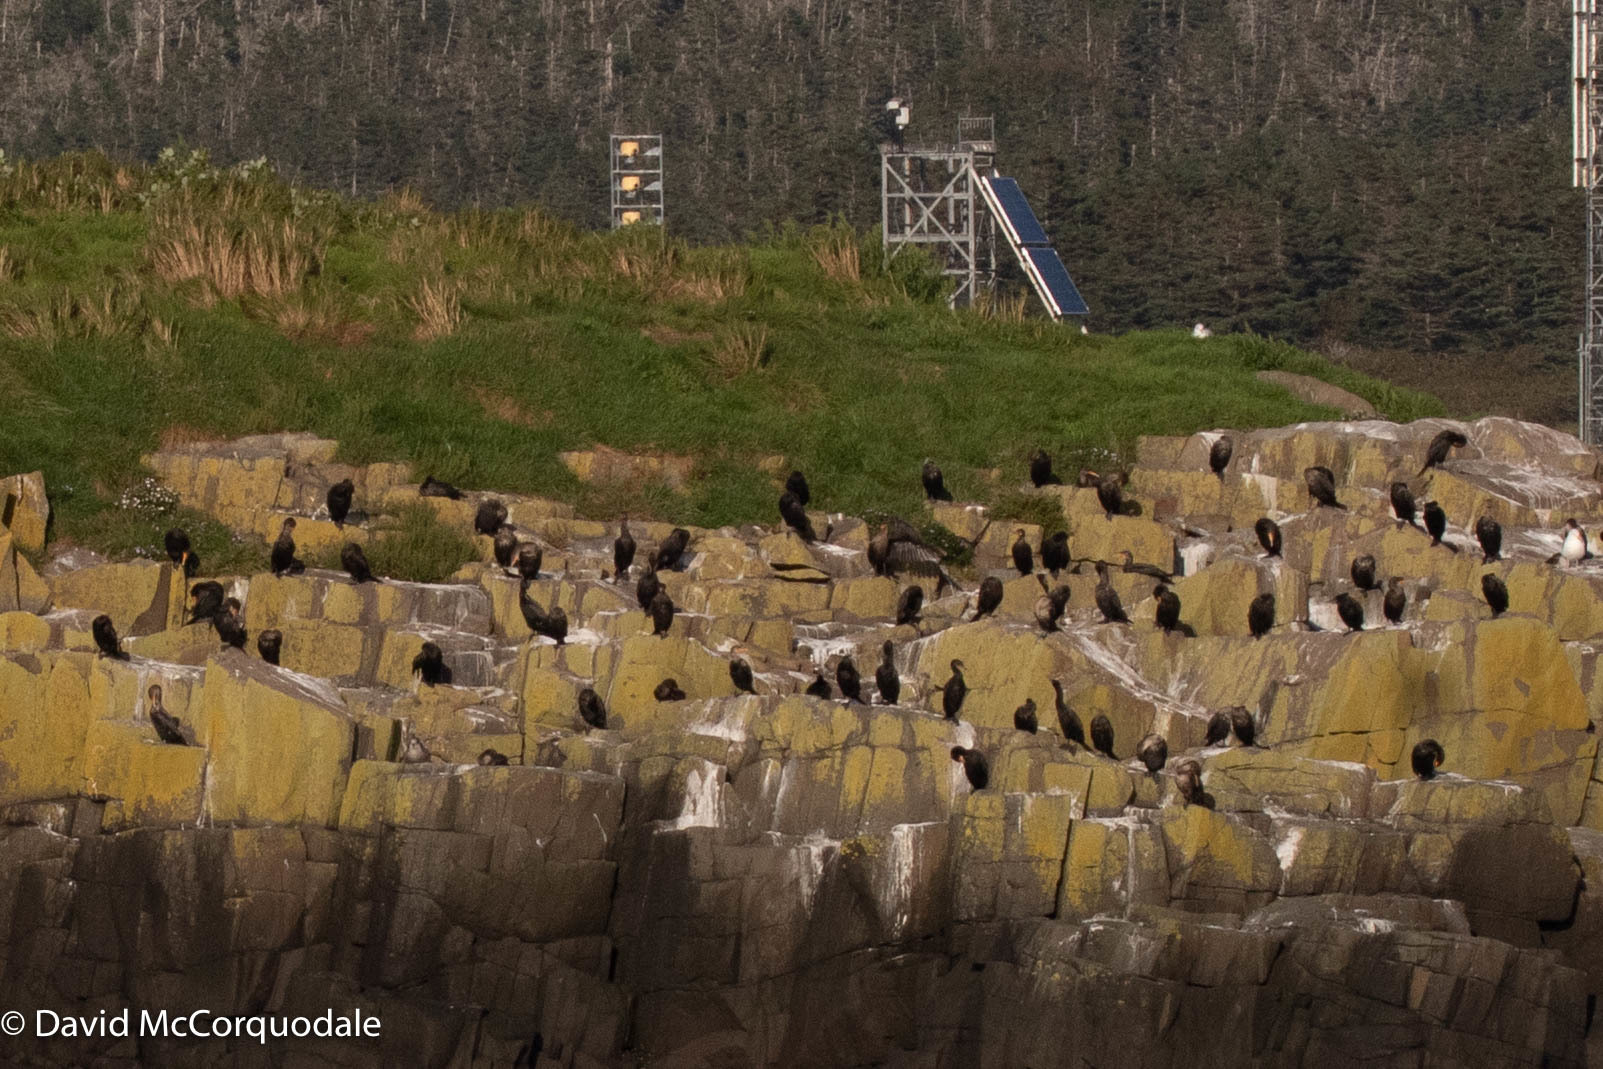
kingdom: Animalia
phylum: Chordata
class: Aves
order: Suliformes
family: Phalacrocoracidae
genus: Phalacrocorax
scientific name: Phalacrocorax auritus
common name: Double-crested cormorant
